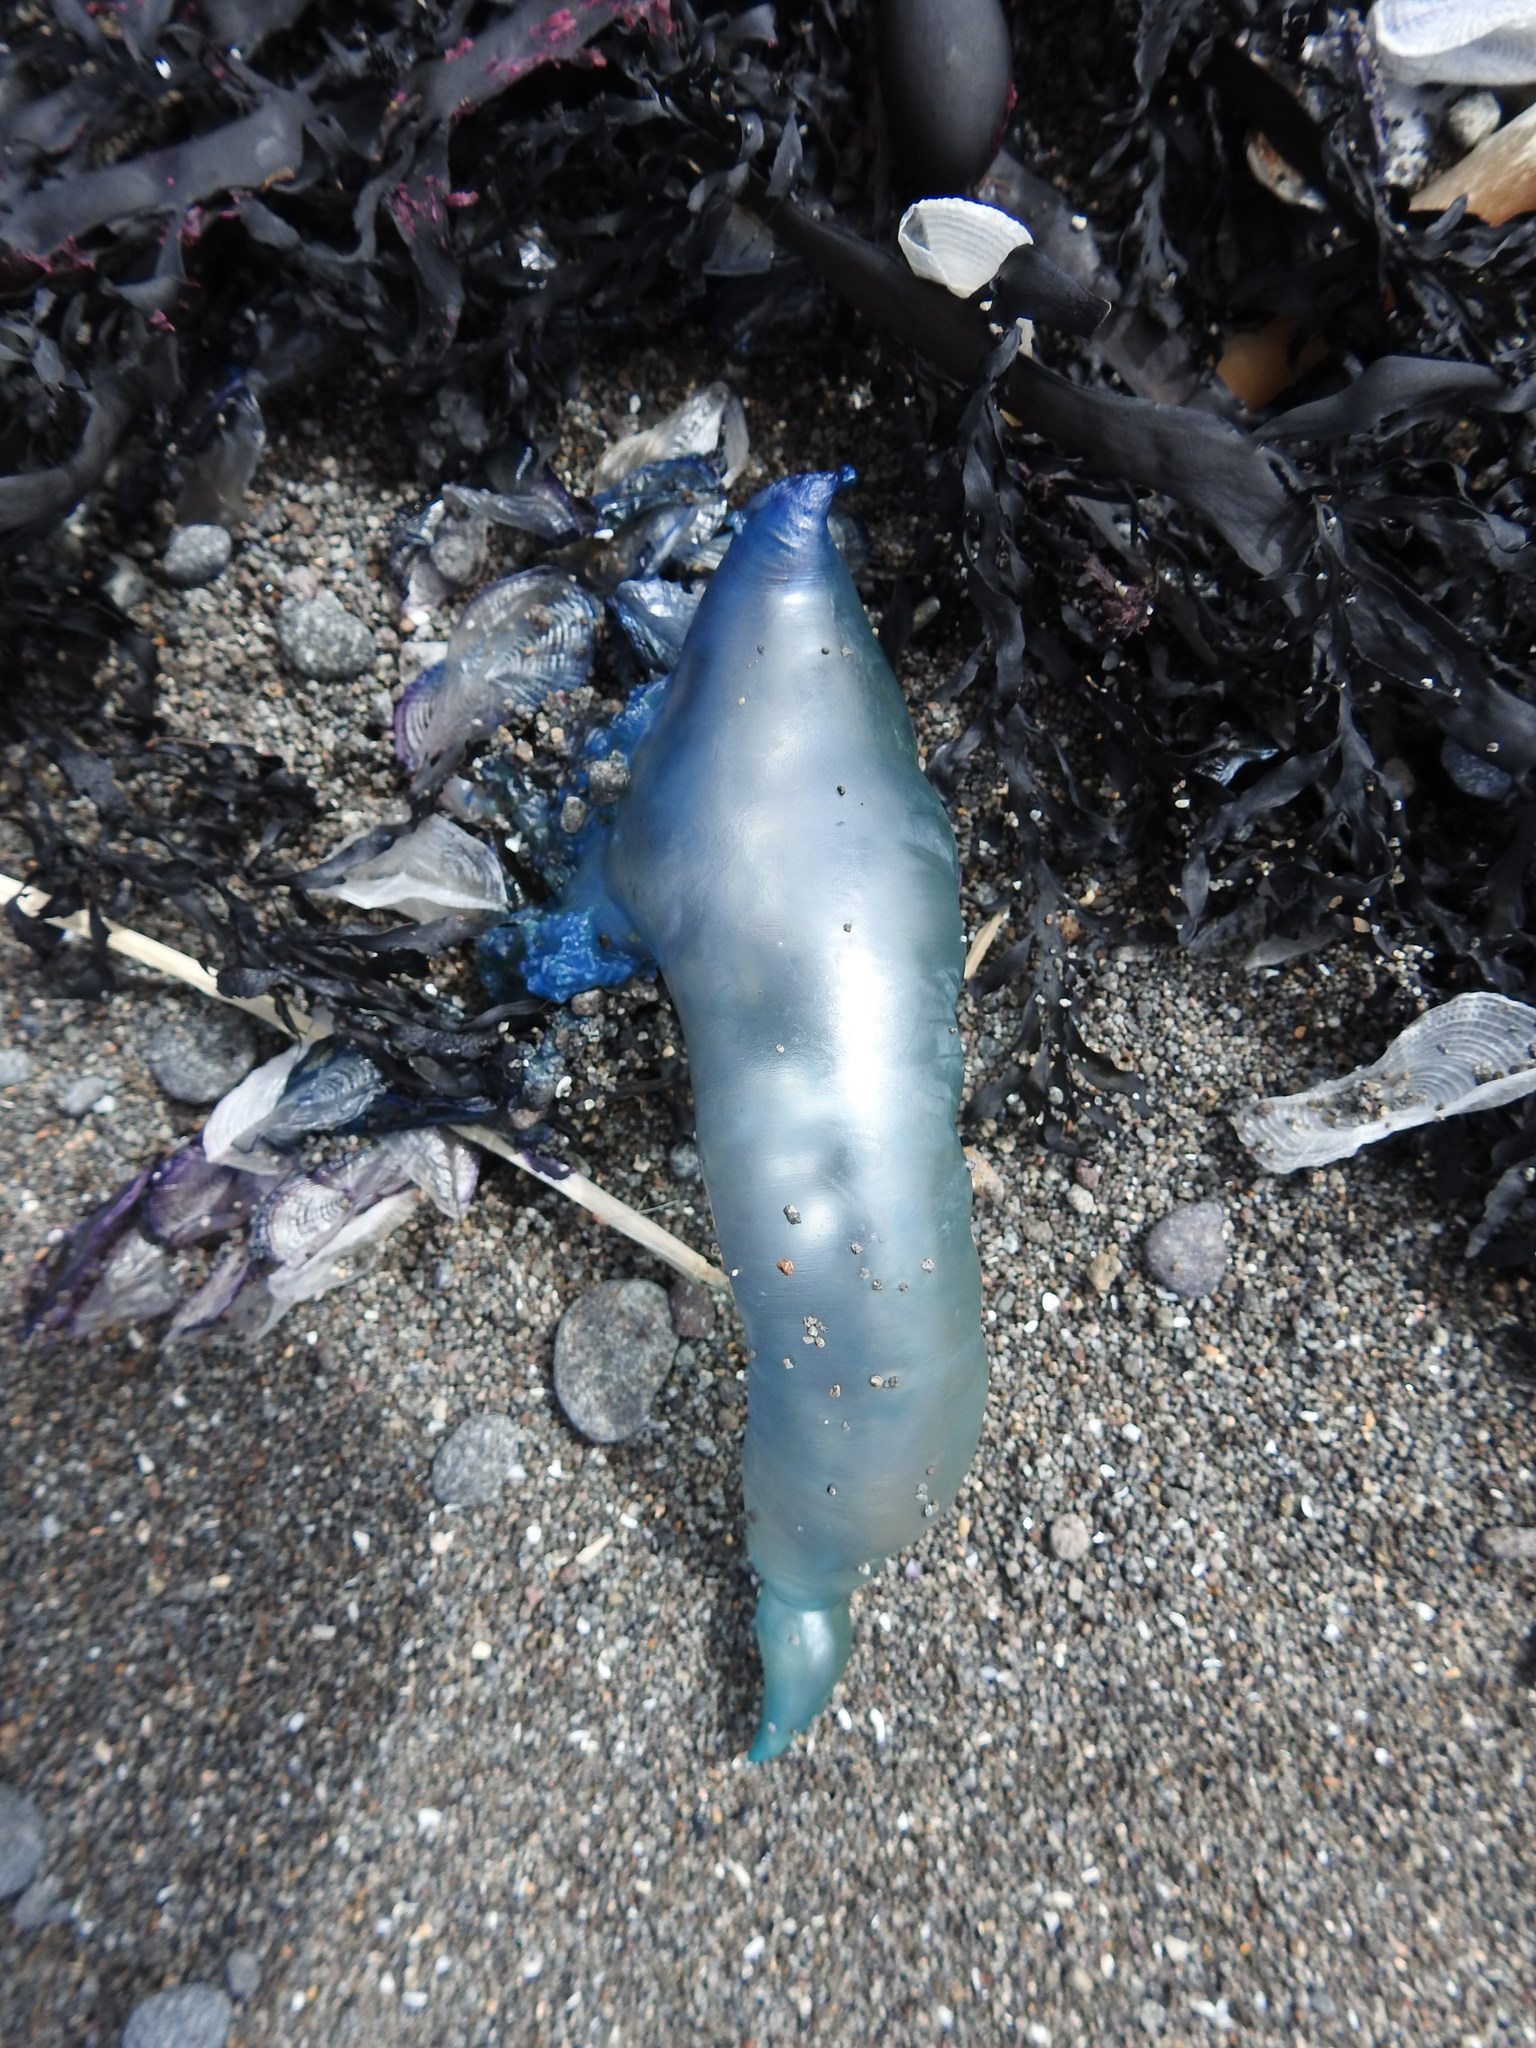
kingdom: Animalia
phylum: Cnidaria
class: Hydrozoa
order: Siphonophorae
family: Physaliidae
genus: Physalia
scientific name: Physalia physalis
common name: Portuguese man-of-war
